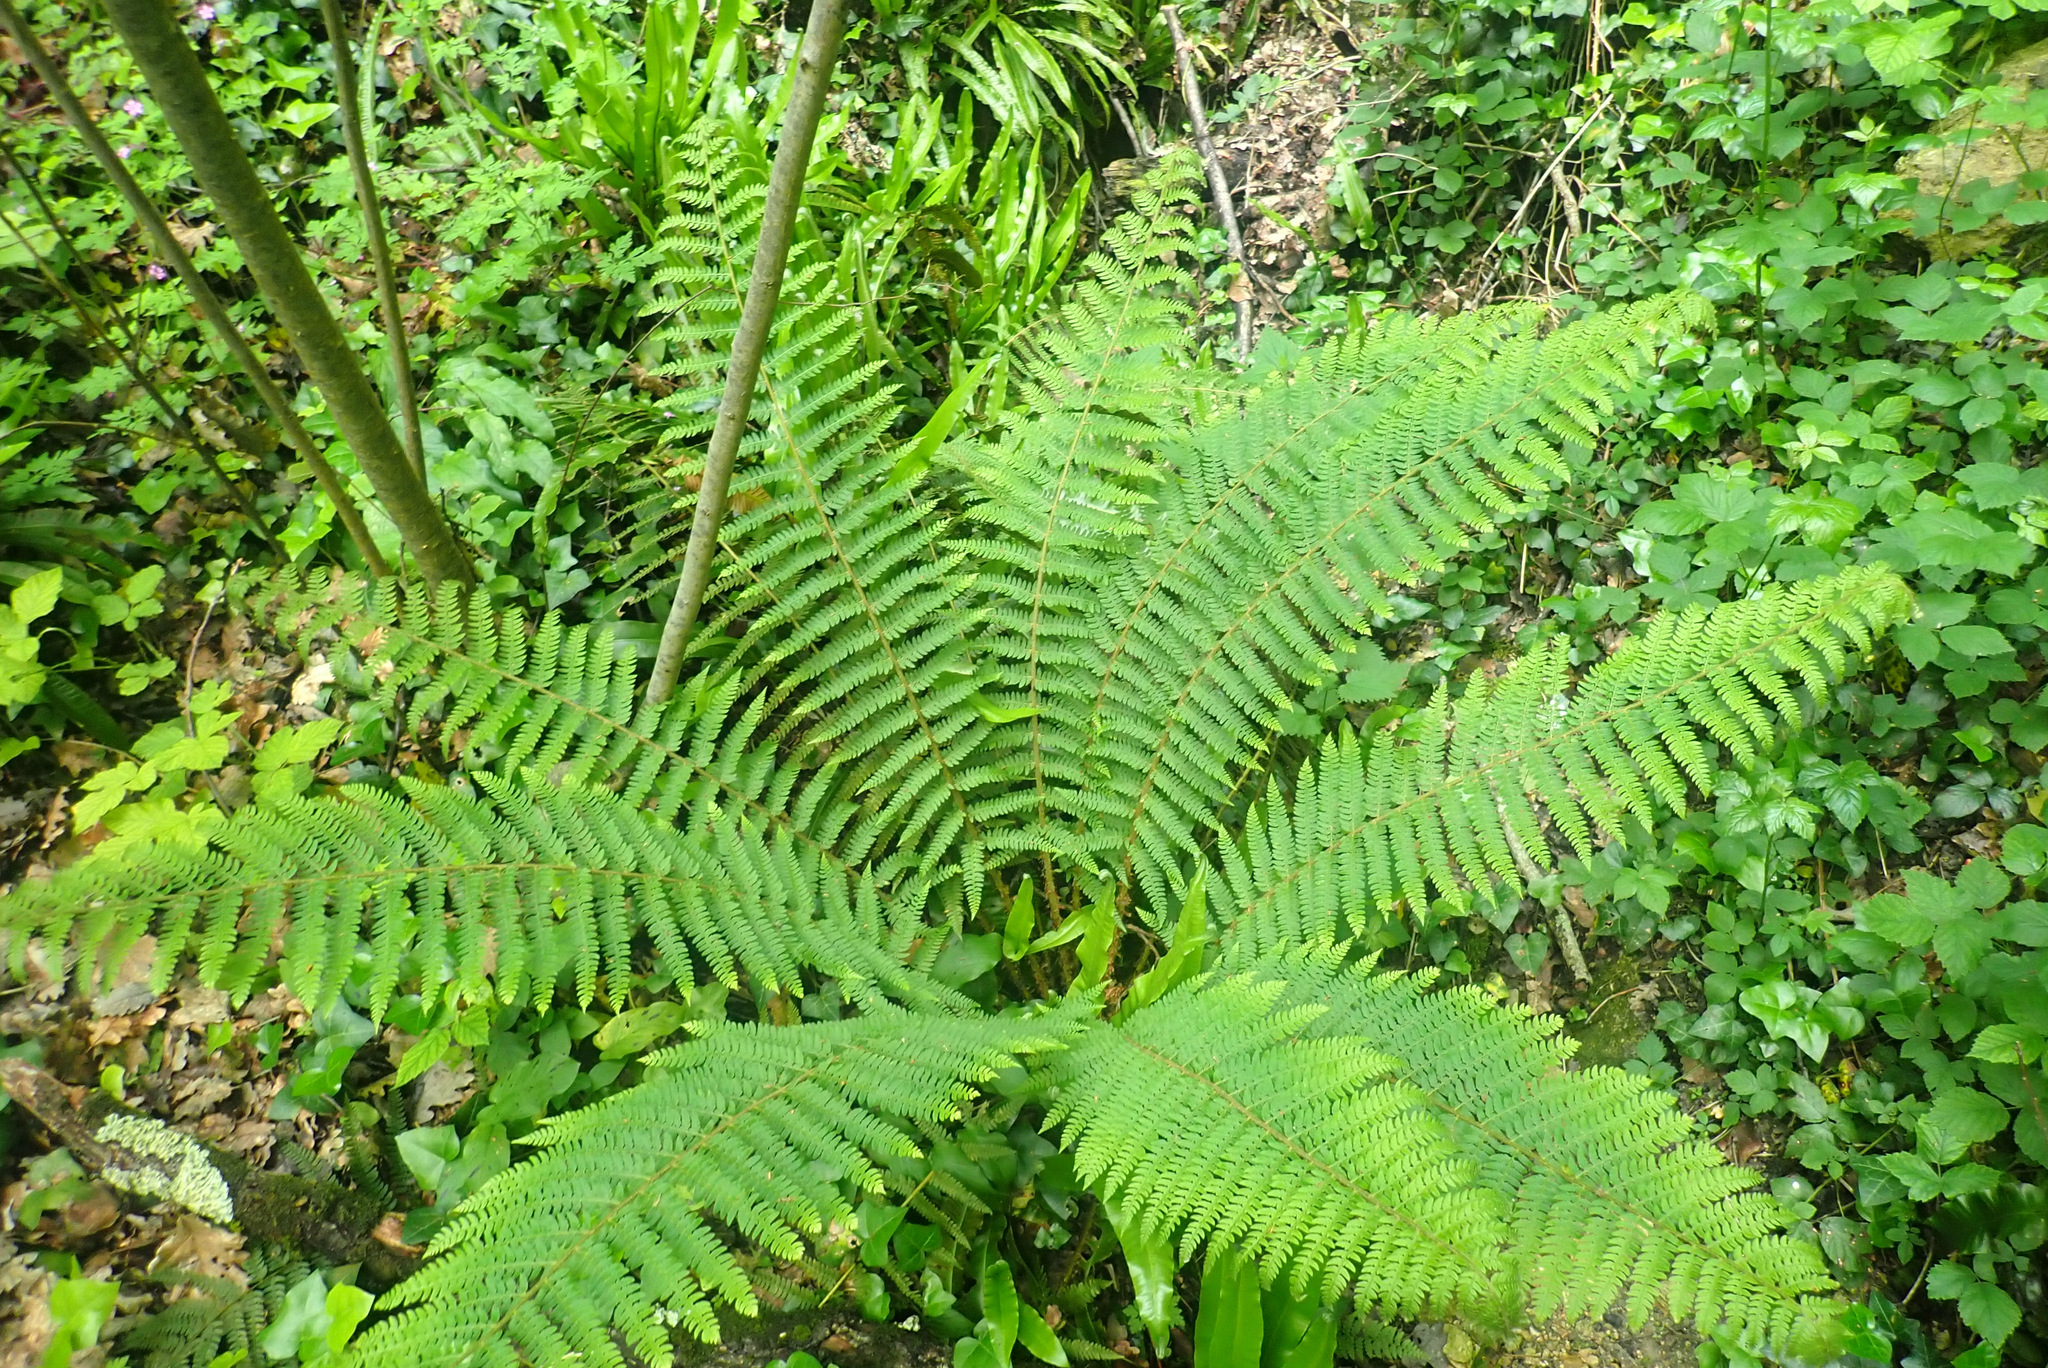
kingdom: Plantae
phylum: Tracheophyta
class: Polypodiopsida
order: Polypodiales
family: Dryopteridaceae
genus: Polystichum
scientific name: Polystichum setiferum
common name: Soft shield-fern
